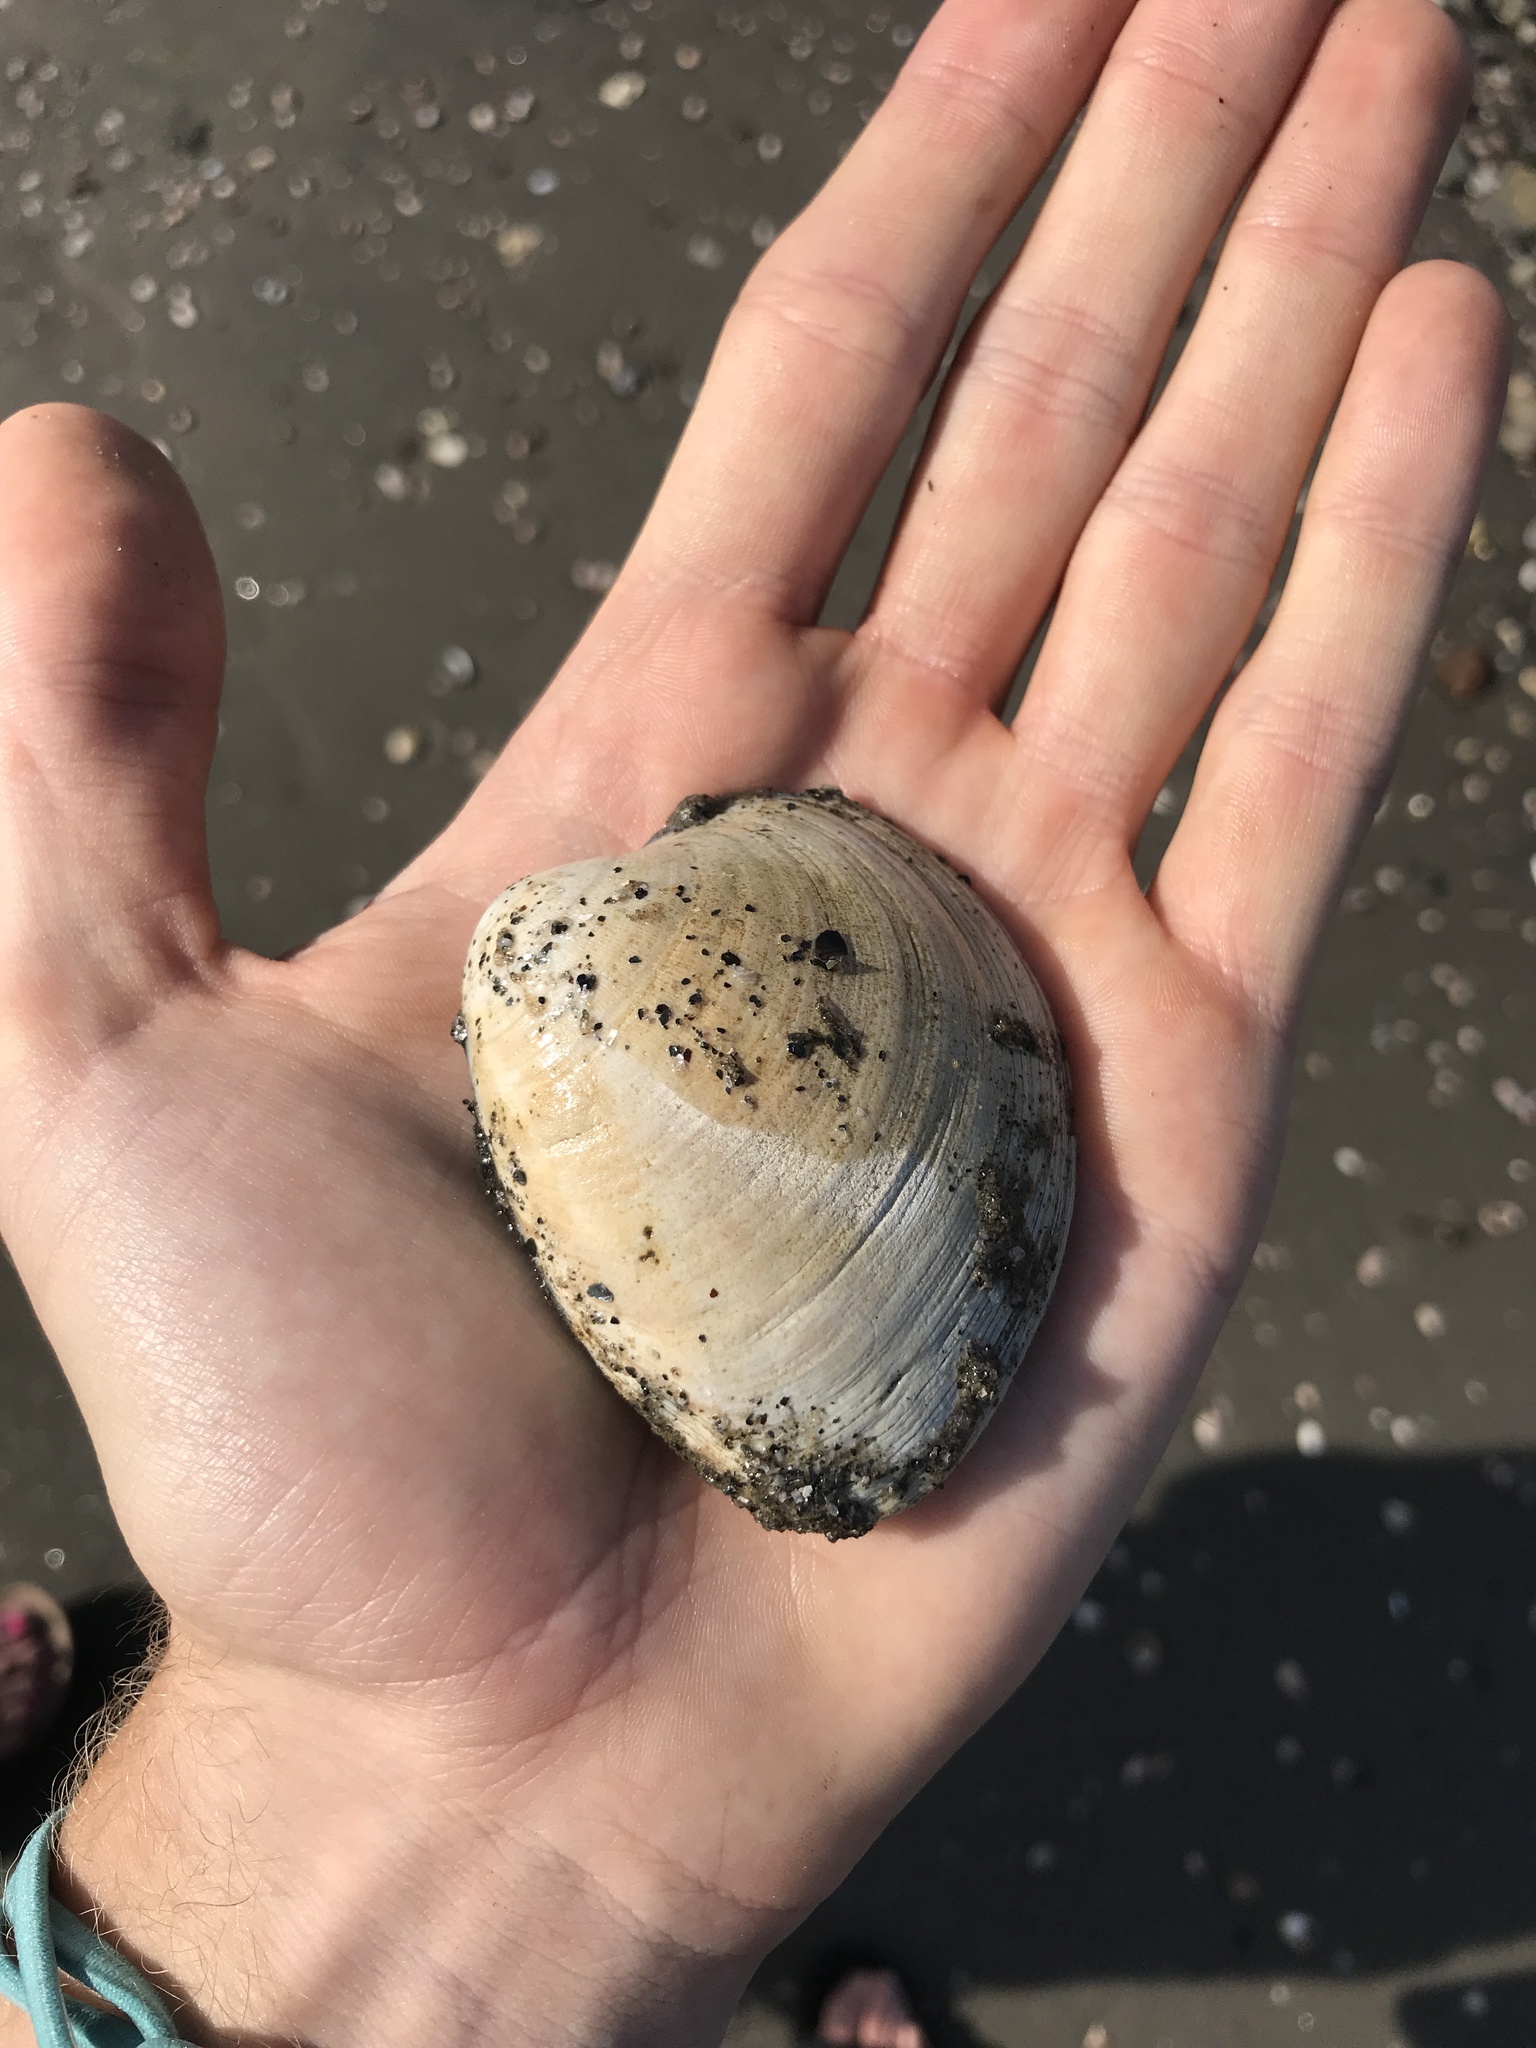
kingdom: Animalia
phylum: Mollusca
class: Bivalvia
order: Venerida
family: Mactridae
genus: Spisula
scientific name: Spisula solidissima
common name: Atlantic surf clam
